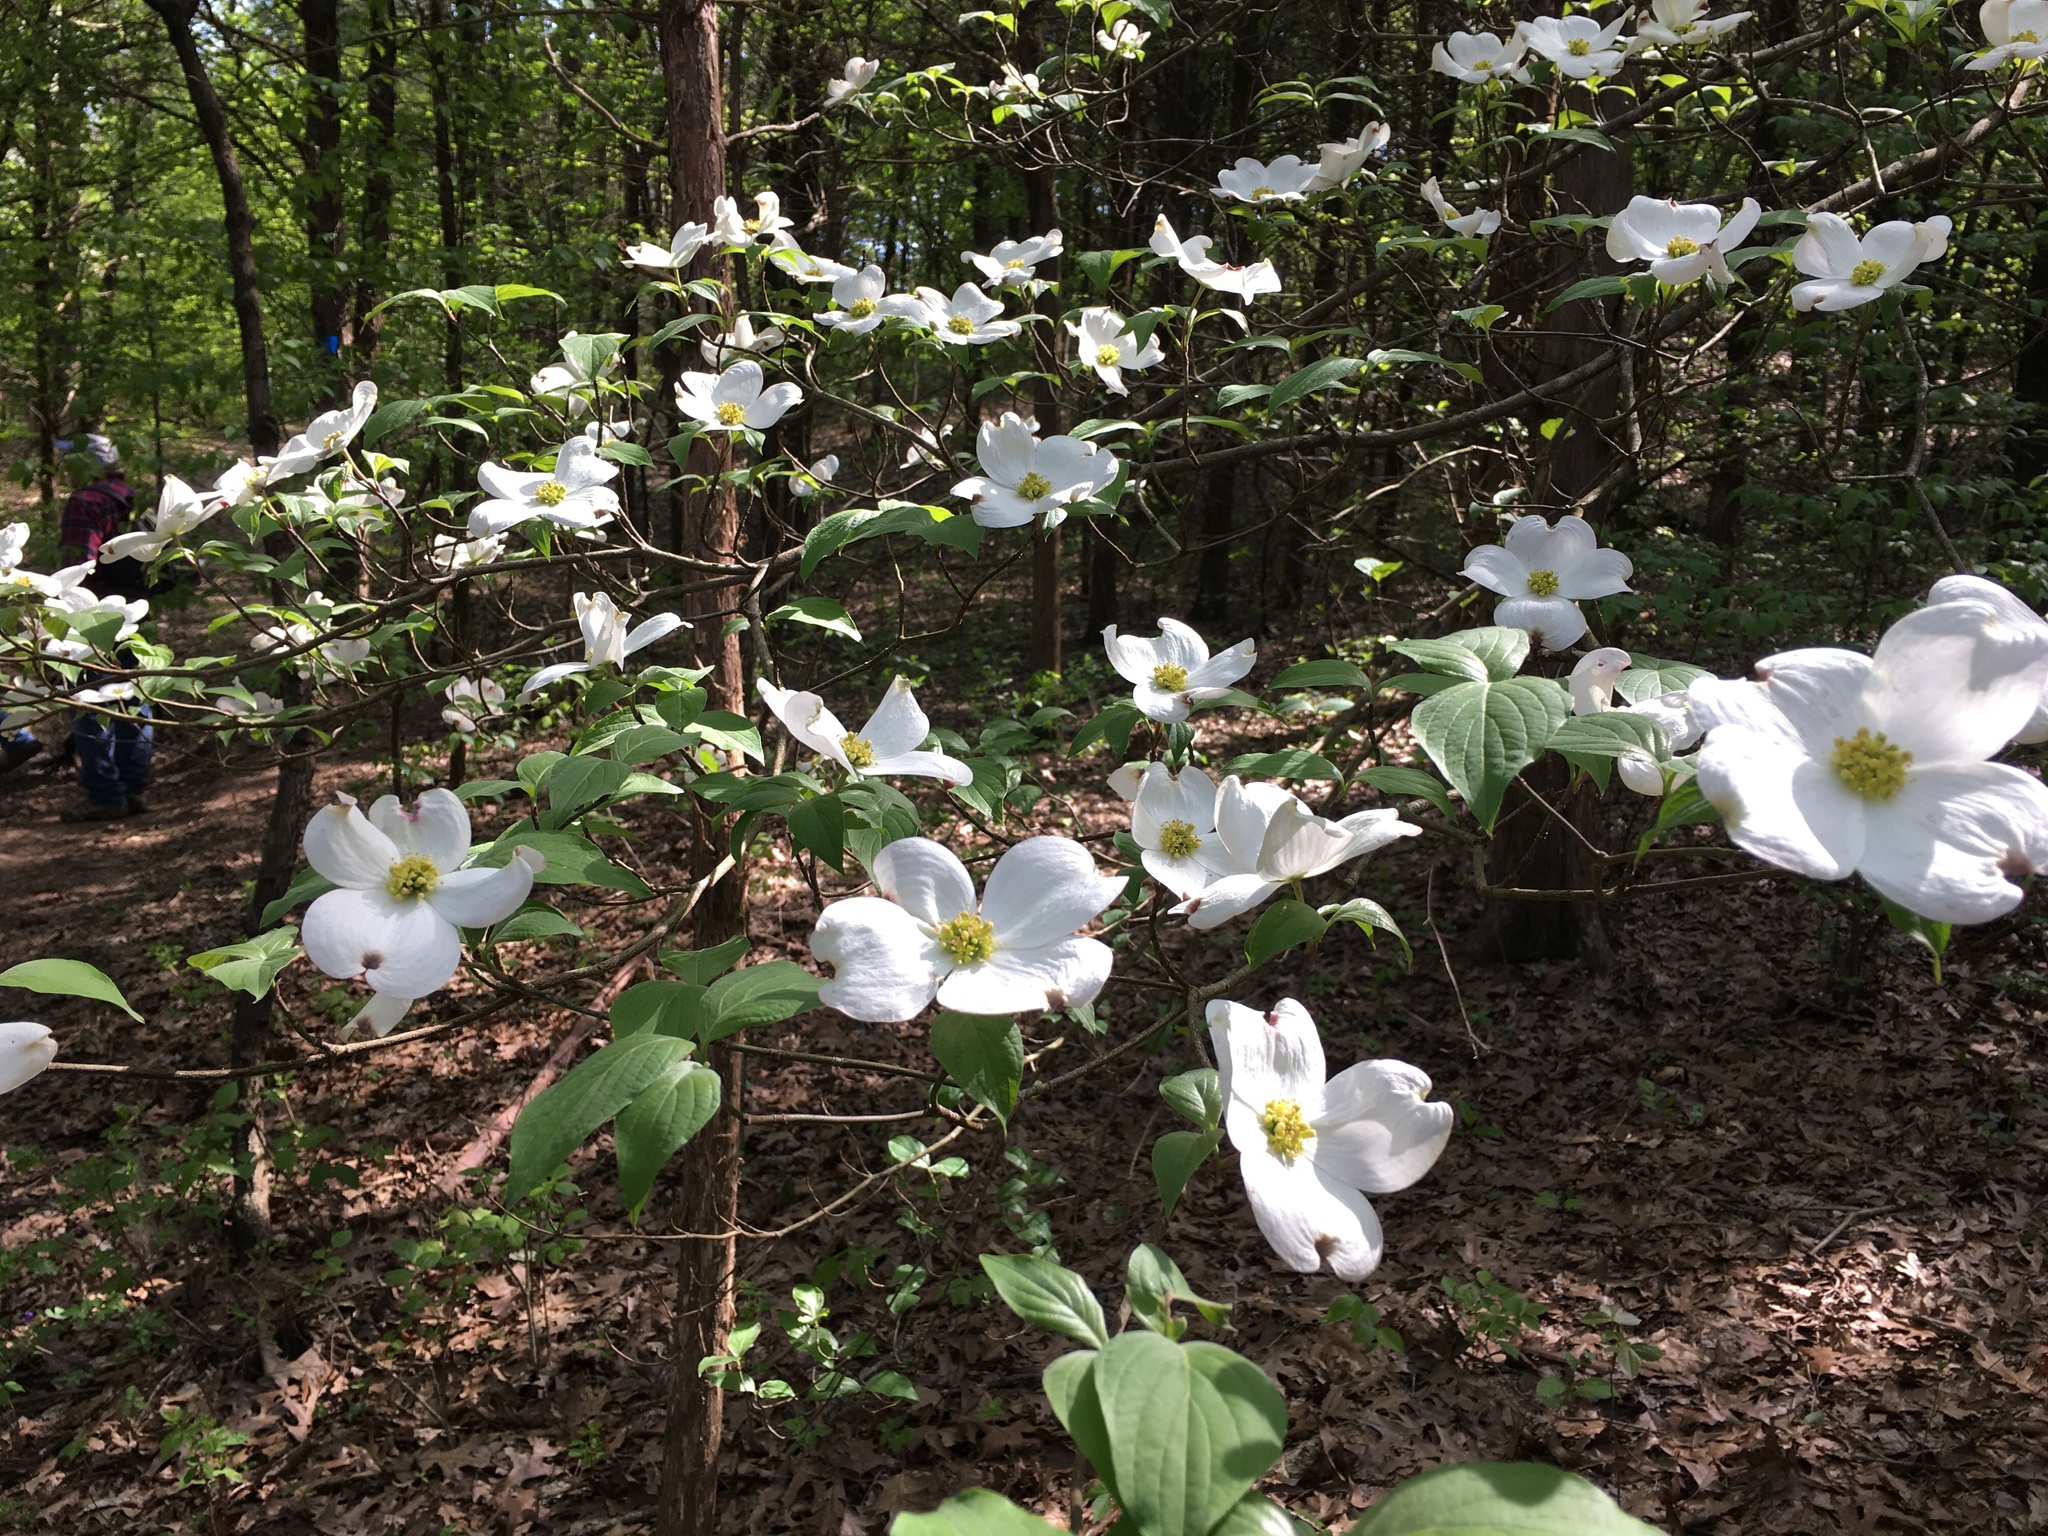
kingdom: Plantae
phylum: Tracheophyta
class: Magnoliopsida
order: Cornales
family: Cornaceae
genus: Cornus
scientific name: Cornus florida
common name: Flowering dogwood
